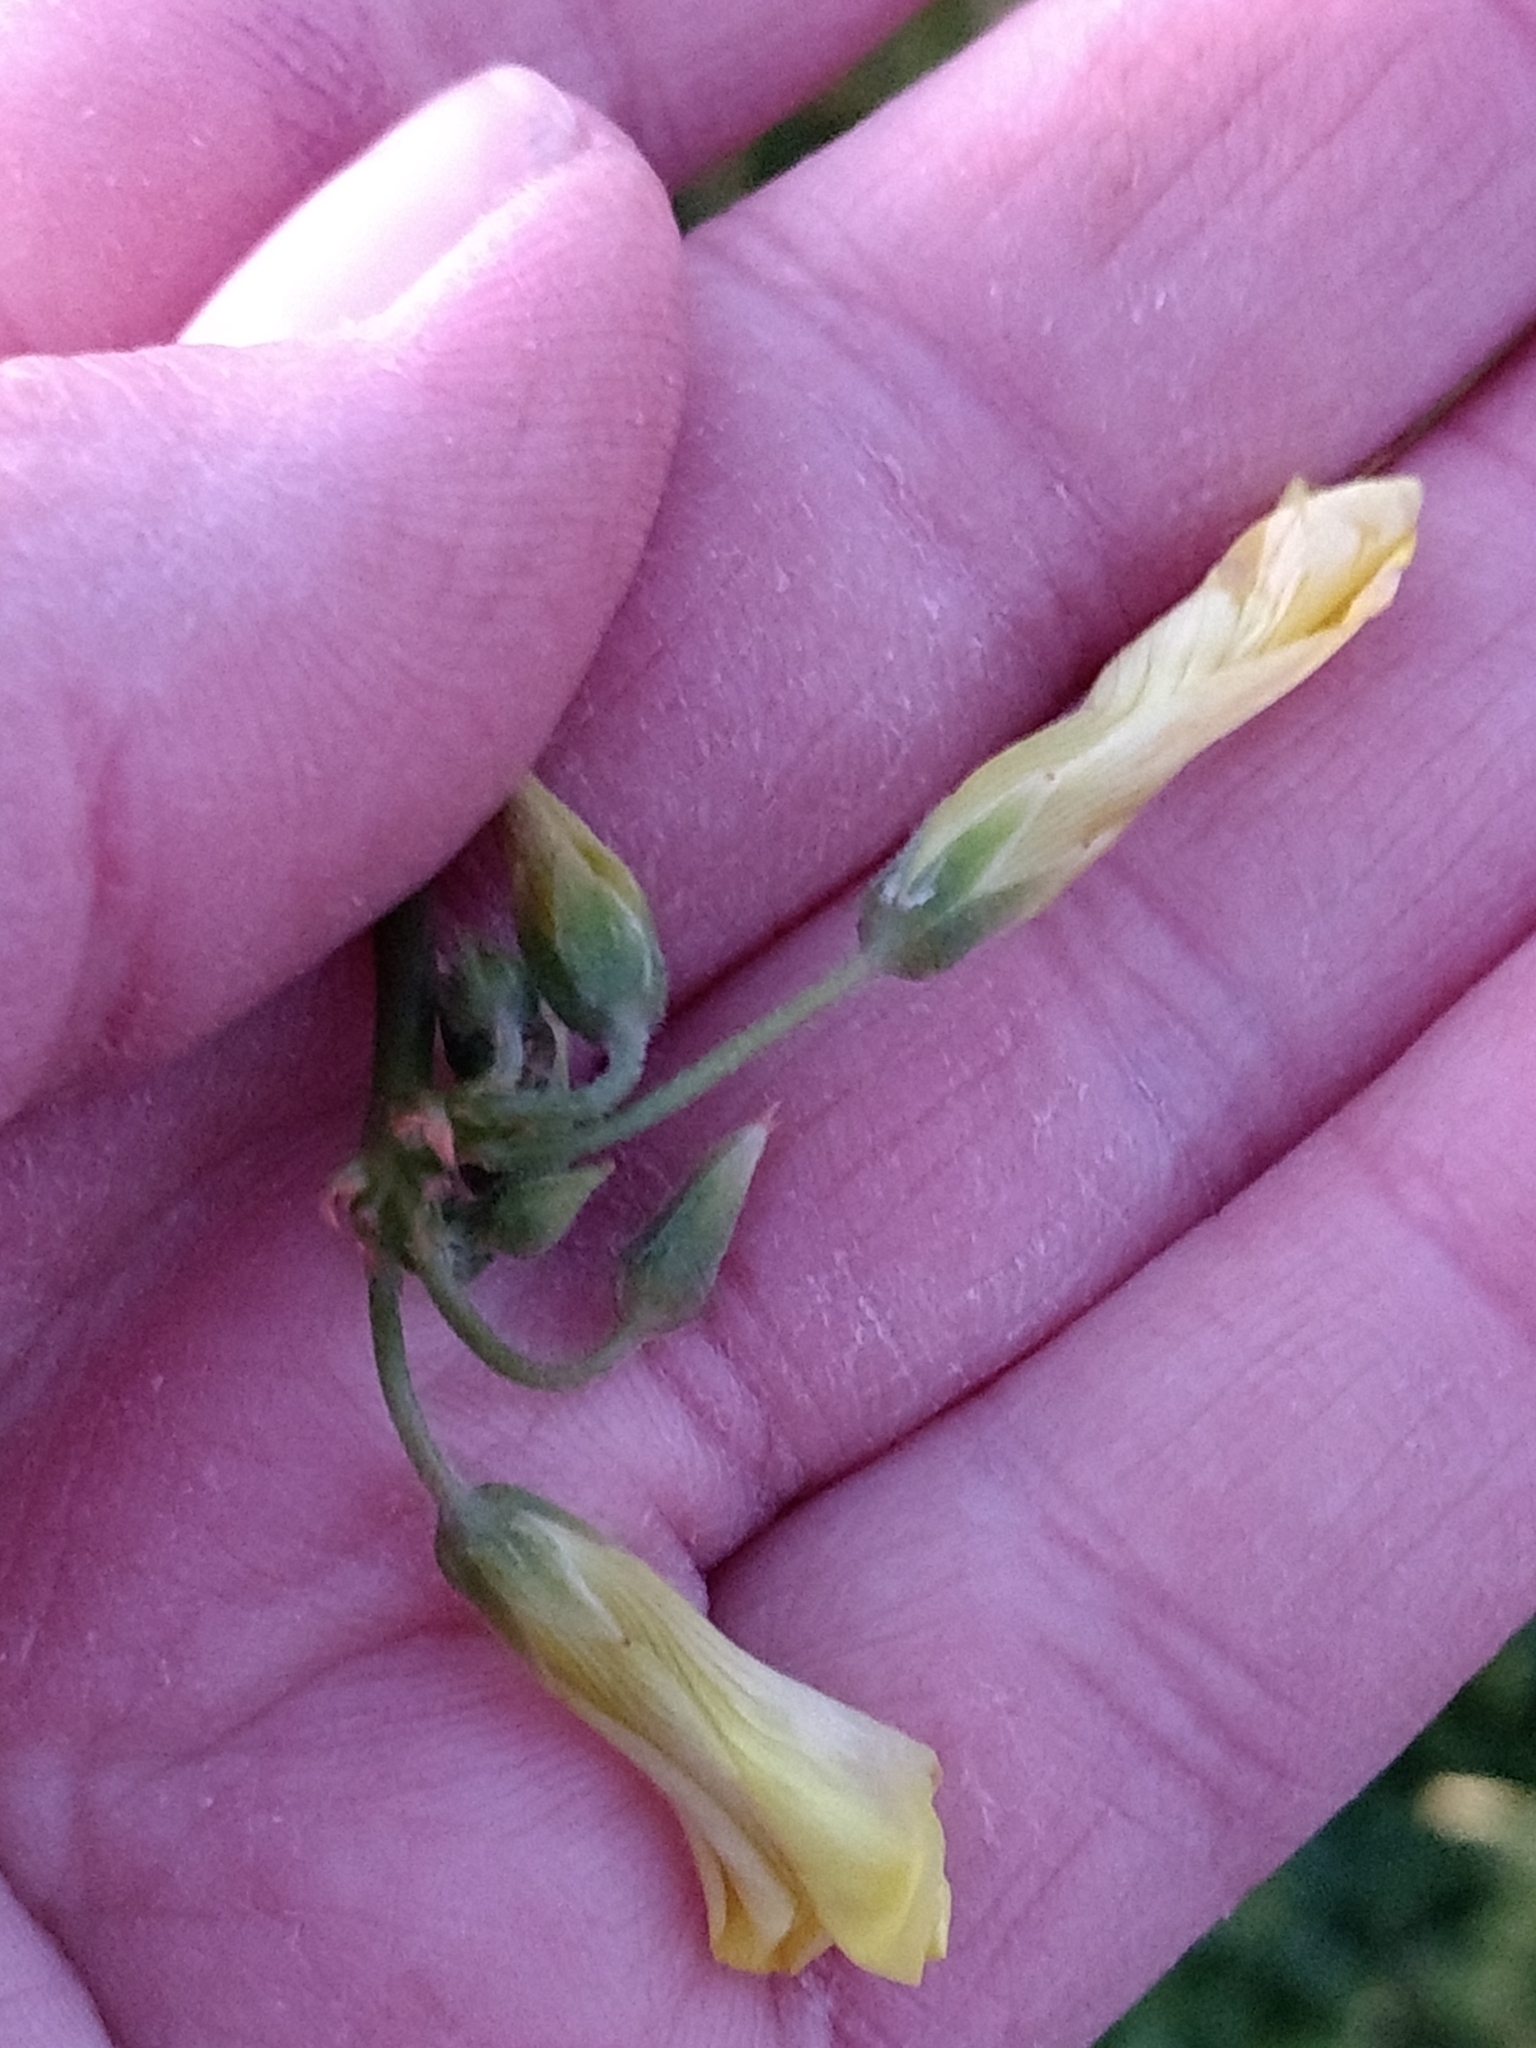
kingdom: Plantae
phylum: Tracheophyta
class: Magnoliopsida
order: Oxalidales
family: Oxalidaceae
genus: Oxalis
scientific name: Oxalis pes-caprae
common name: Bermuda-buttercup
